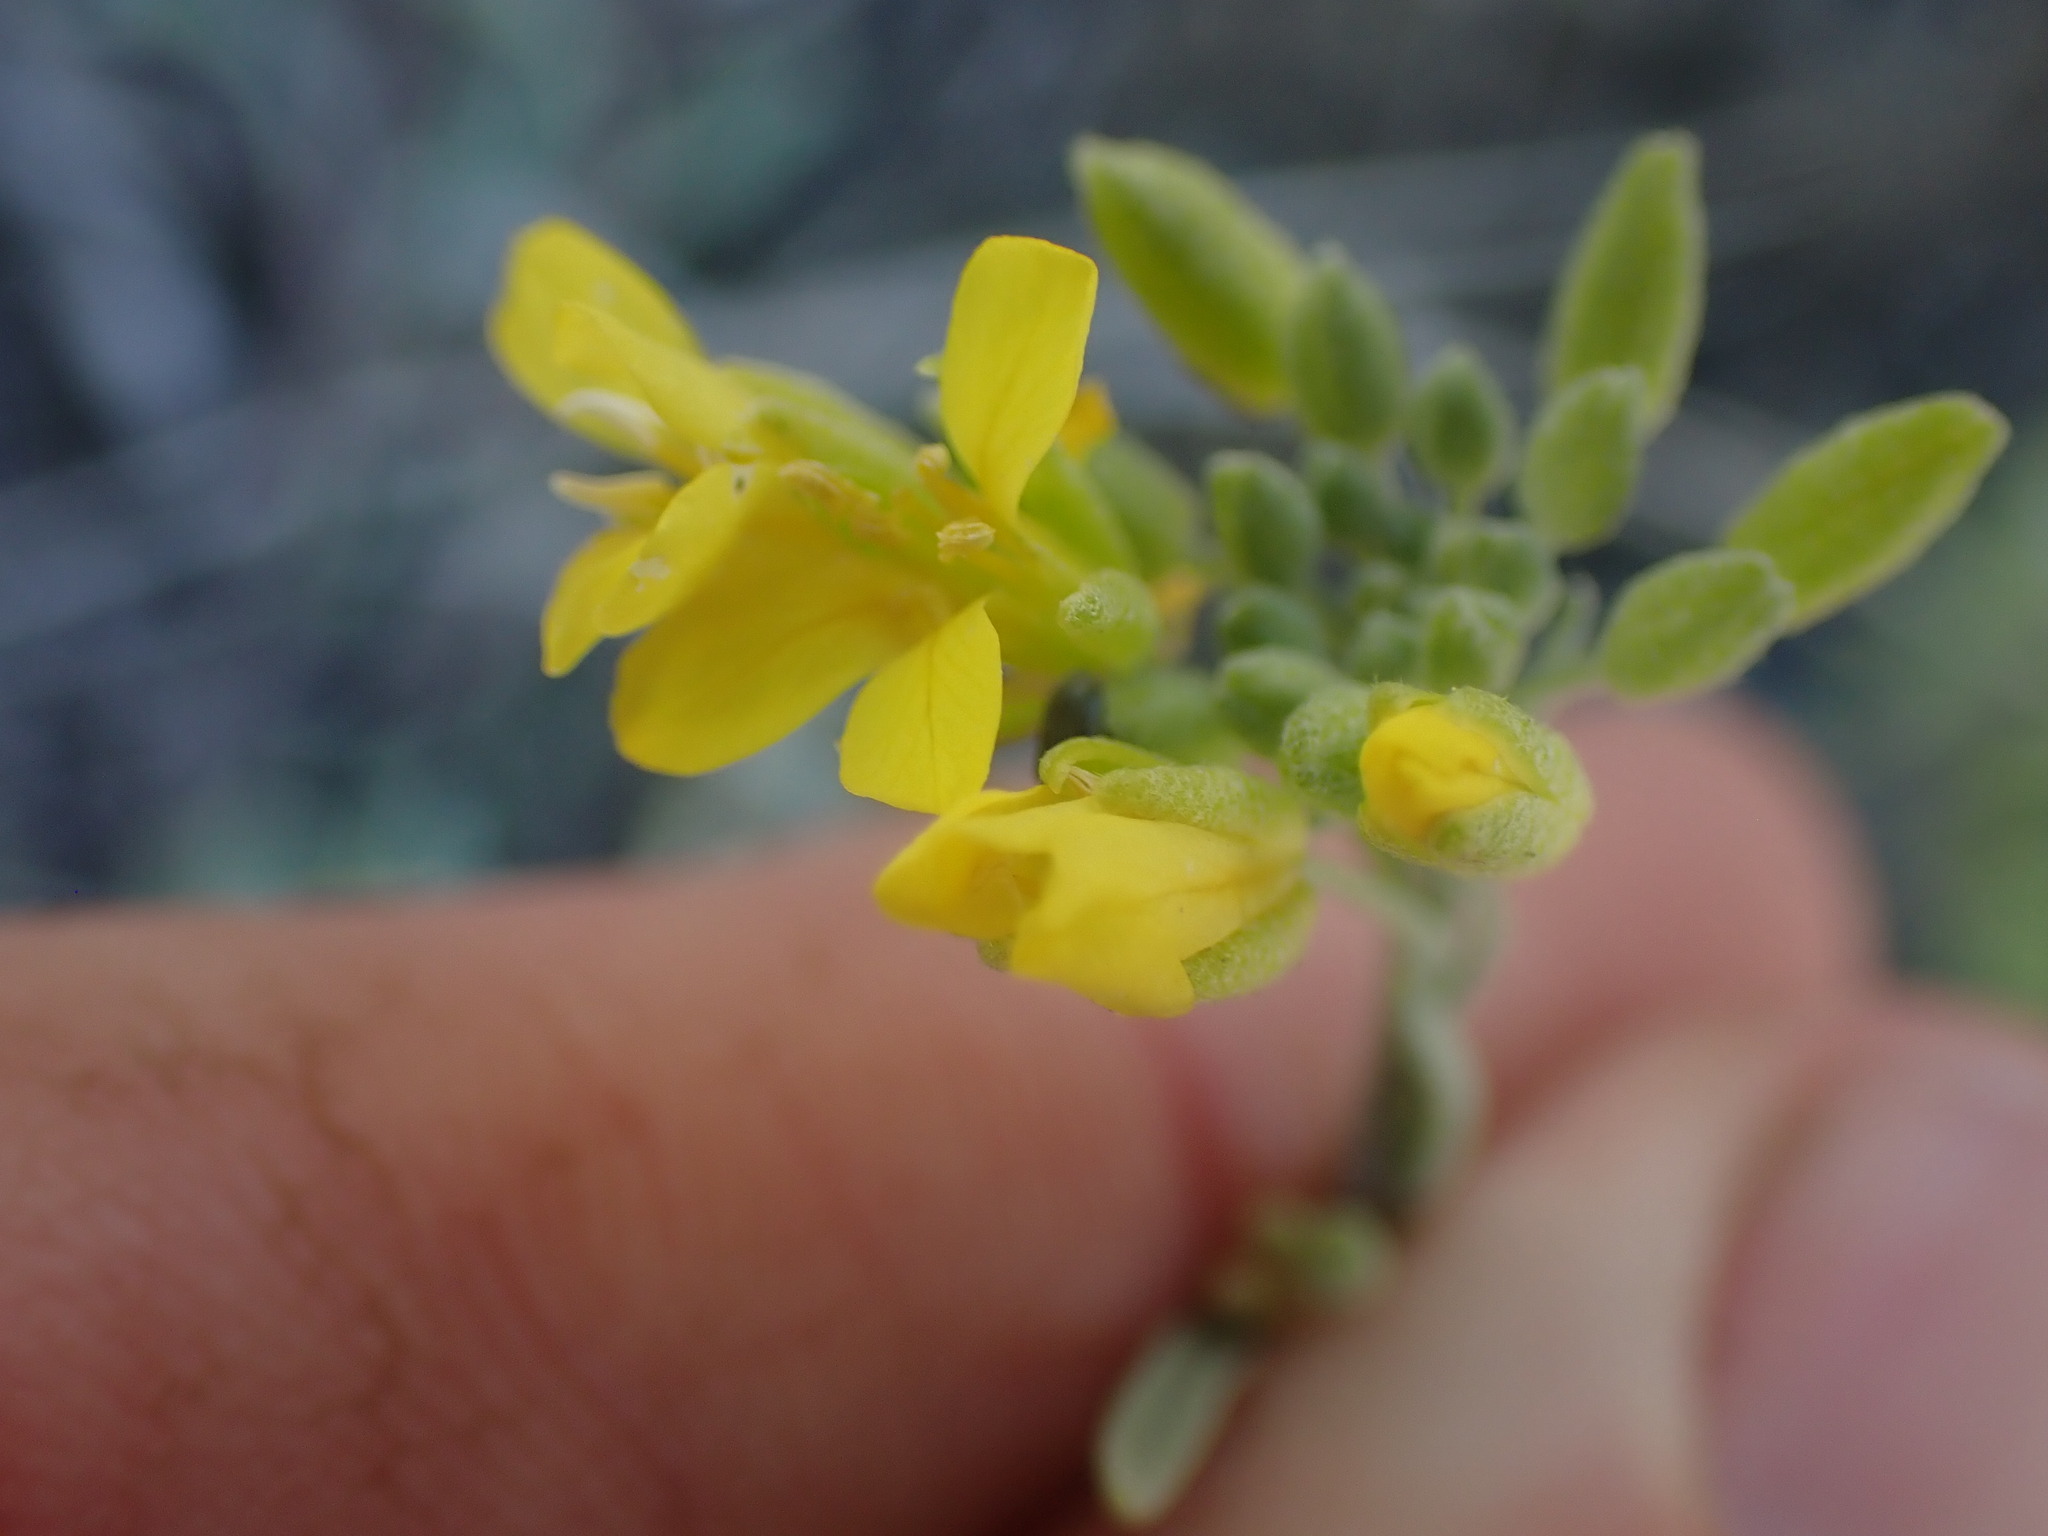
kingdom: Plantae
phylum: Tracheophyta
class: Magnoliopsida
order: Brassicales
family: Brassicaceae
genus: Physaria
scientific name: Physaria douglasii
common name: Douglas's bladderpod
